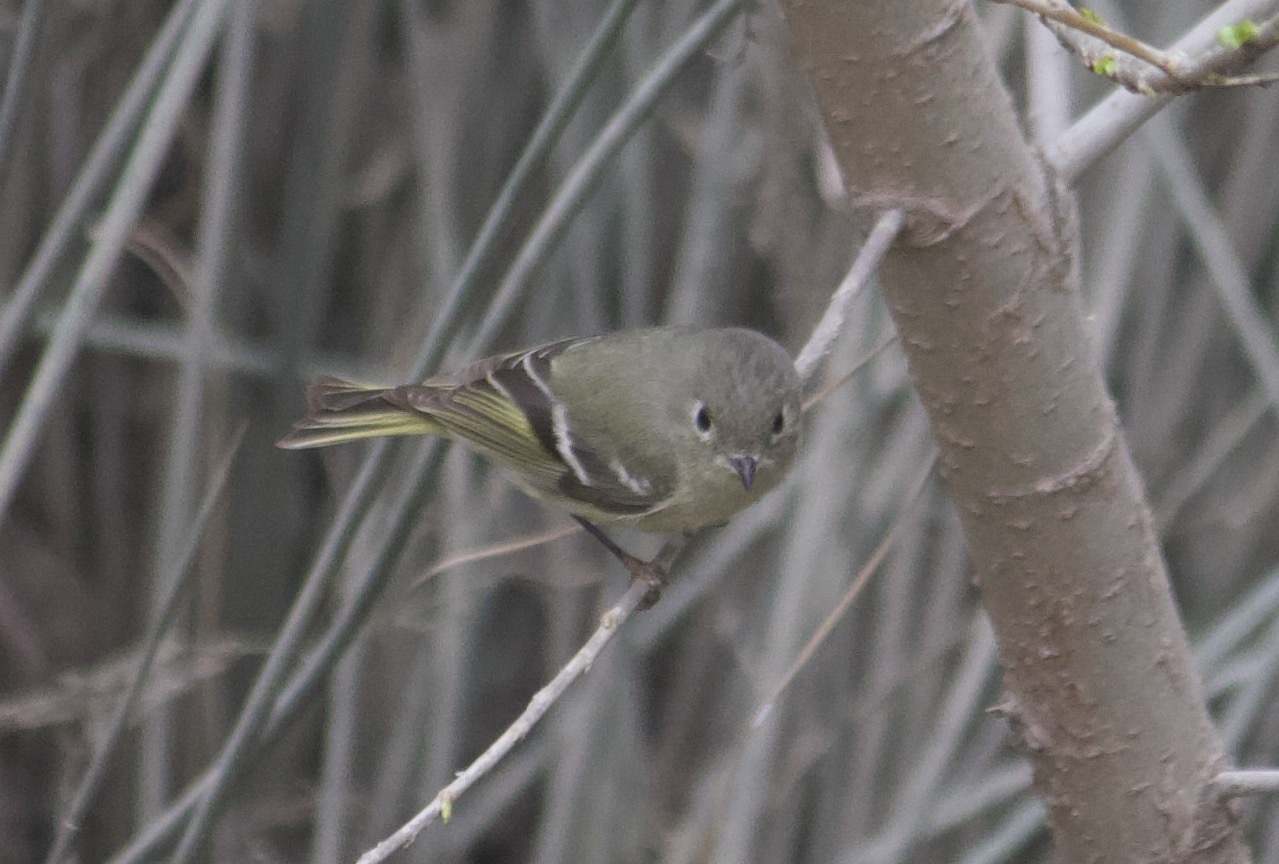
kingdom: Animalia
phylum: Chordata
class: Aves
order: Passeriformes
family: Regulidae
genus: Regulus
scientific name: Regulus calendula
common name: Ruby-crowned kinglet
